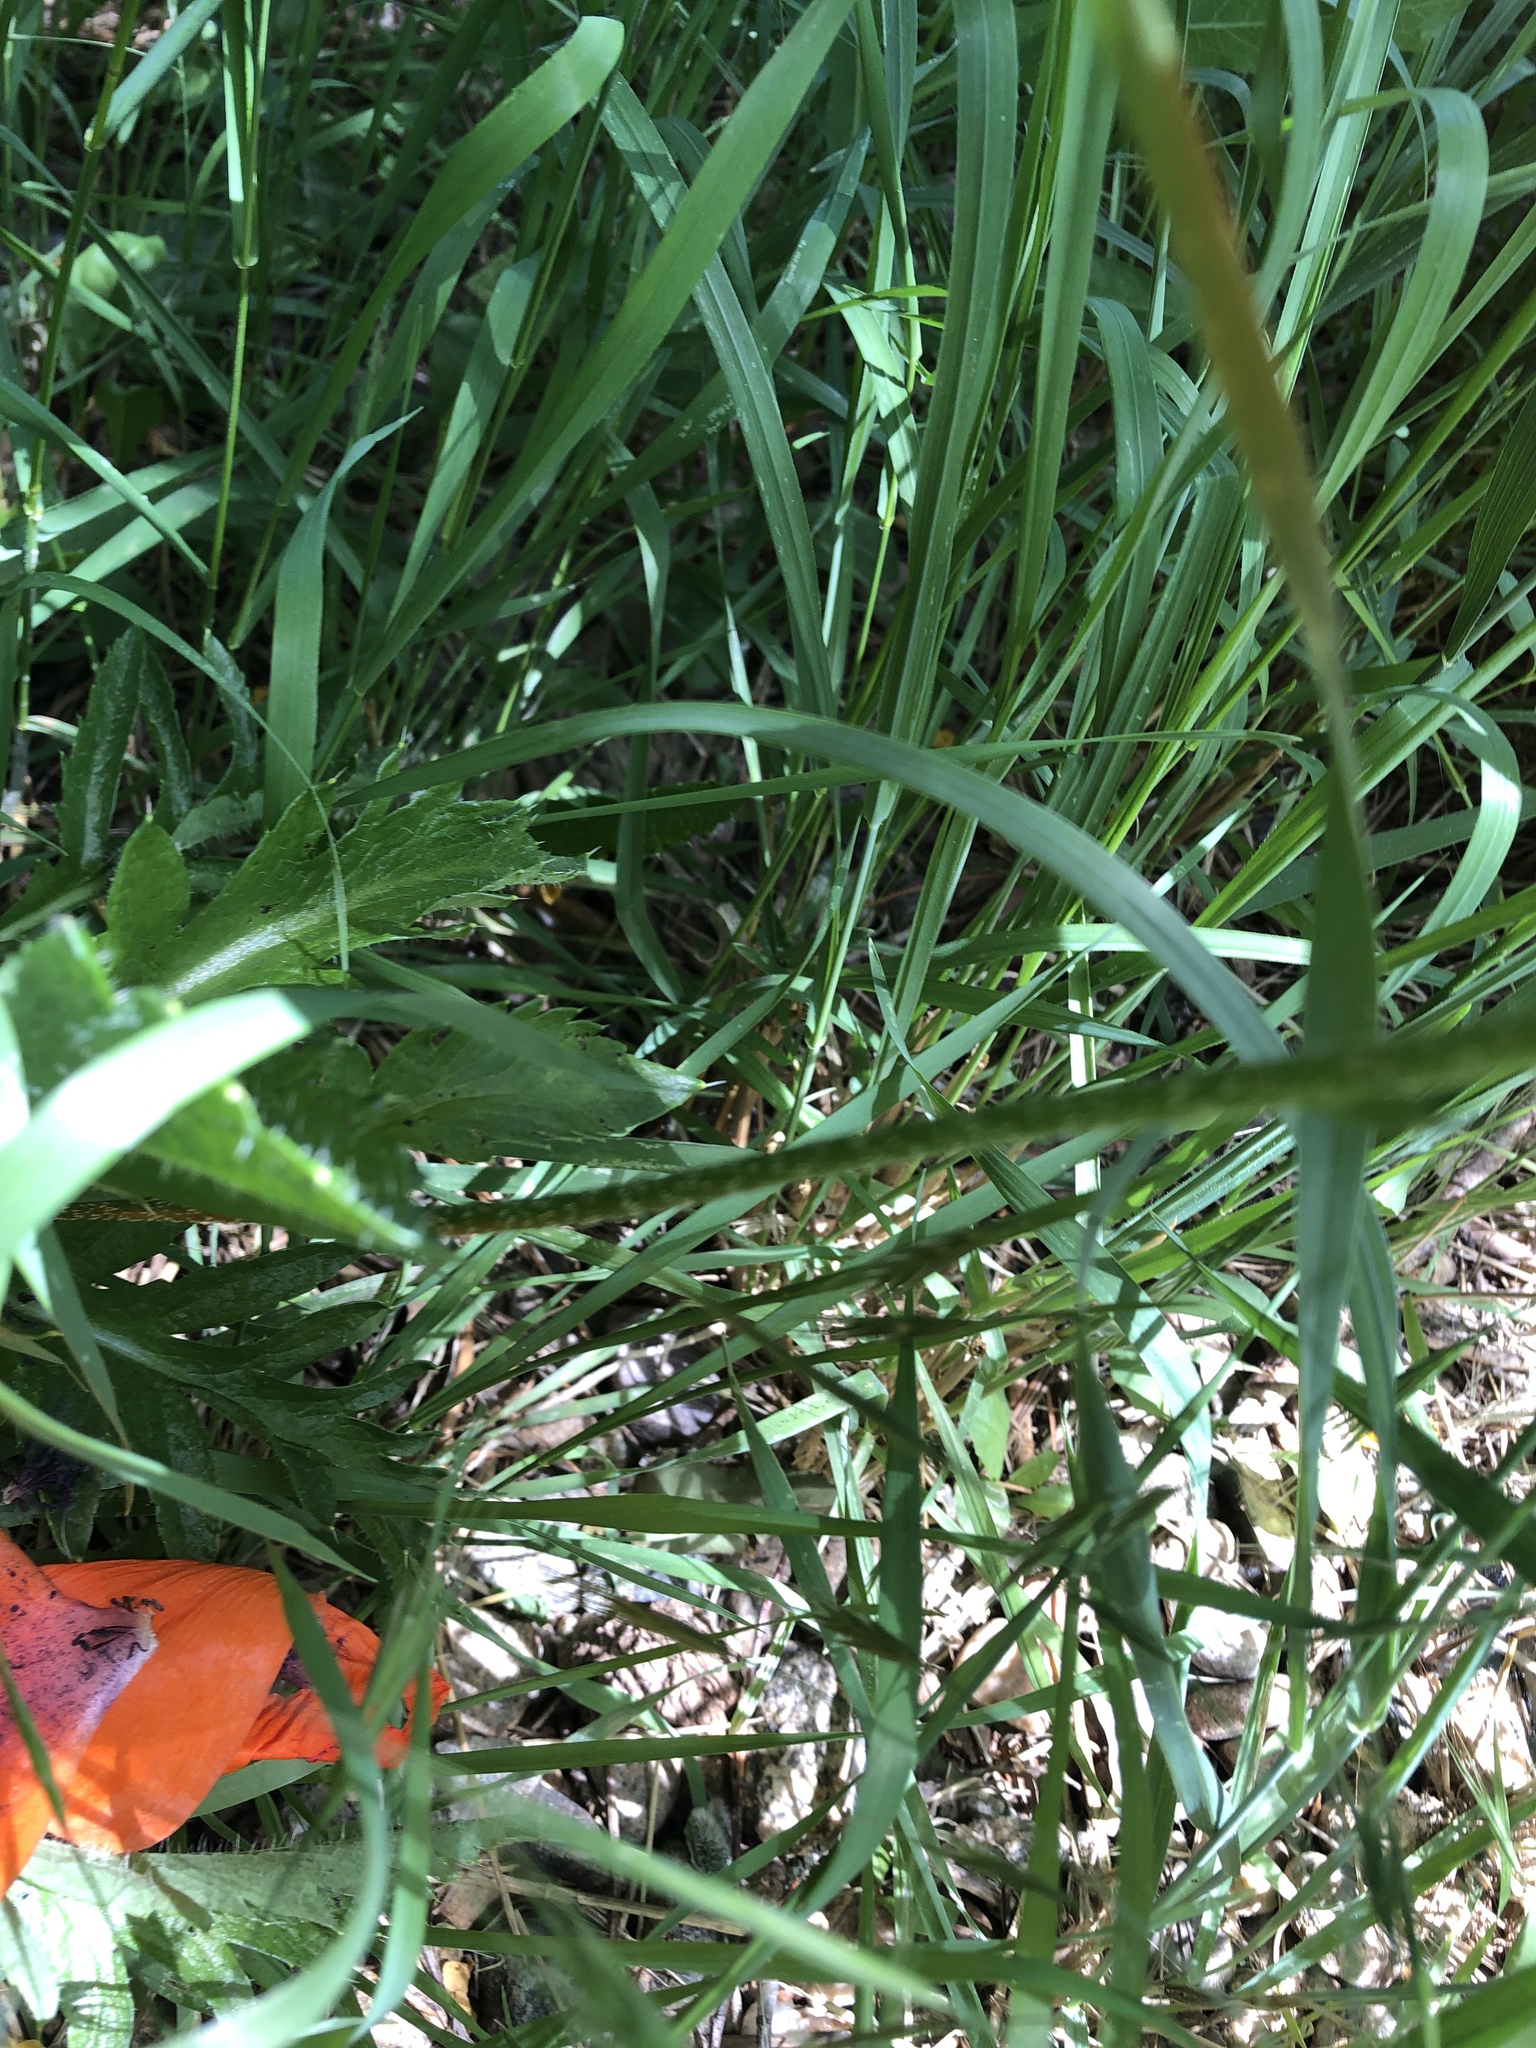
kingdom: Plantae
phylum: Tracheophyta
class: Magnoliopsida
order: Ranunculales
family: Papaveraceae
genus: Papaver
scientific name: Papaver orientale
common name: Oriental poppy
